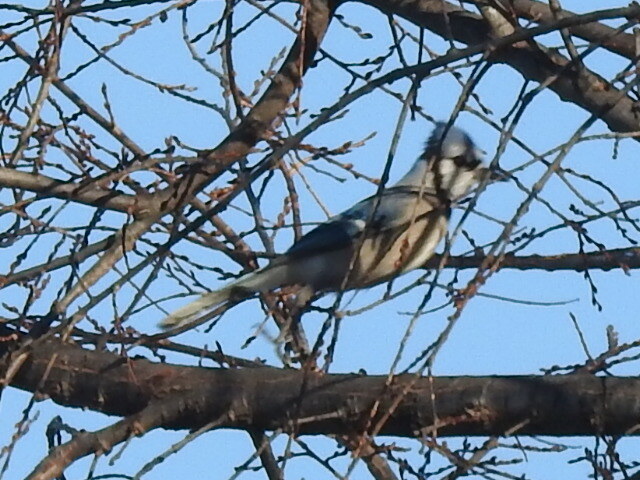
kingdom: Animalia
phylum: Chordata
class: Aves
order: Passeriformes
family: Corvidae
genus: Cyanocitta
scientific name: Cyanocitta cristata
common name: Blue jay
